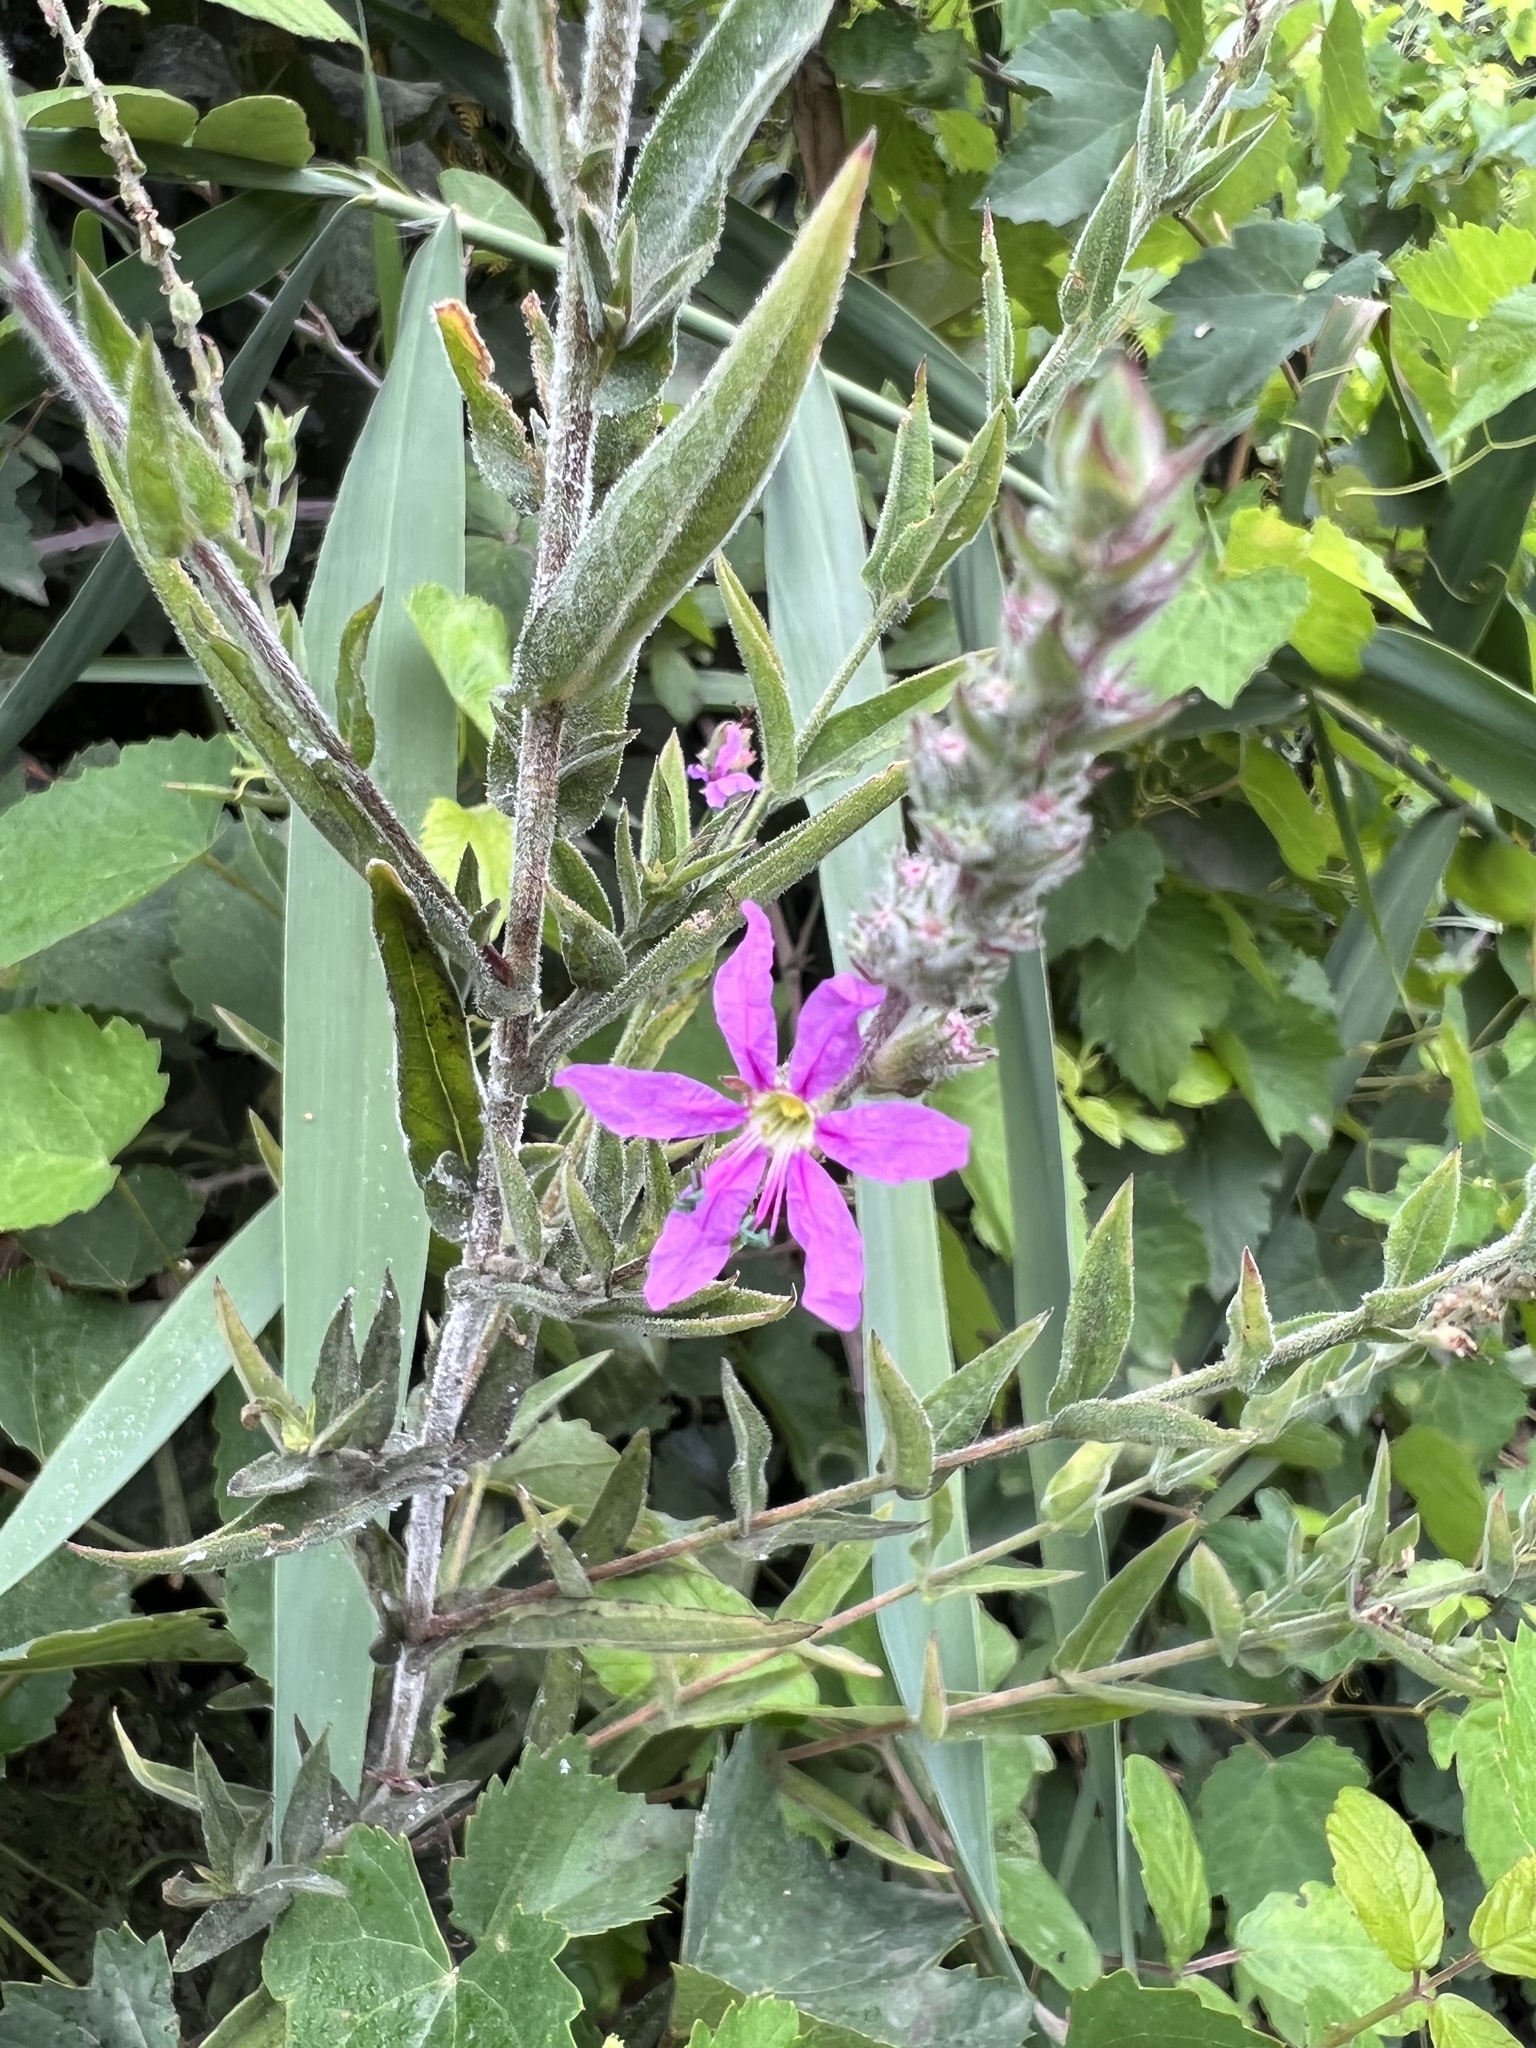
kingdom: Plantae
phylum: Tracheophyta
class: Magnoliopsida
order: Myrtales
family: Lythraceae
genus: Lythrum
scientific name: Lythrum salicaria
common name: Purple loosestrife
